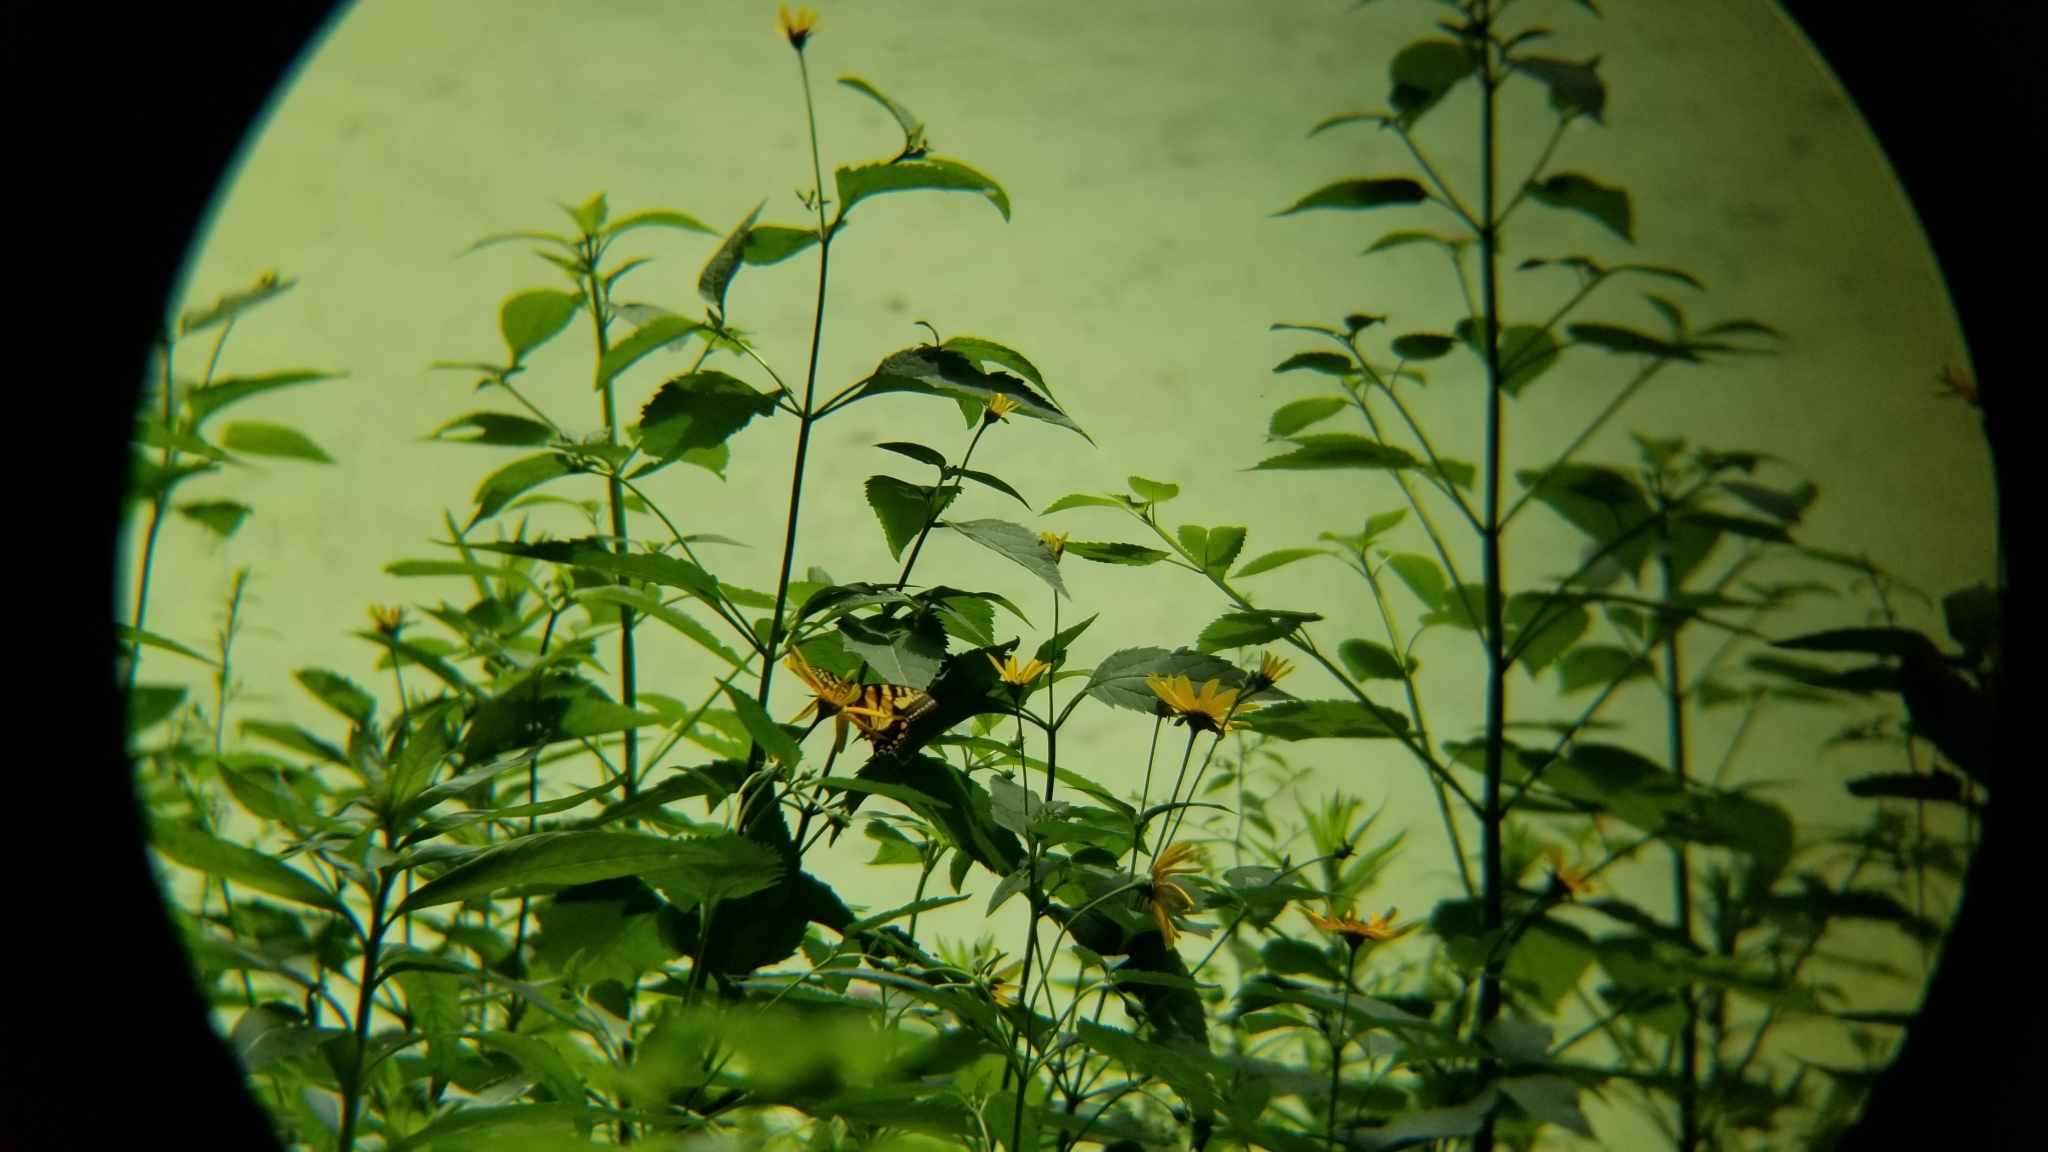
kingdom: Animalia
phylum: Arthropoda
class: Insecta
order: Lepidoptera
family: Papilionidae
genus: Papilio
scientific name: Papilio glaucus
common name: Tiger swallowtail
